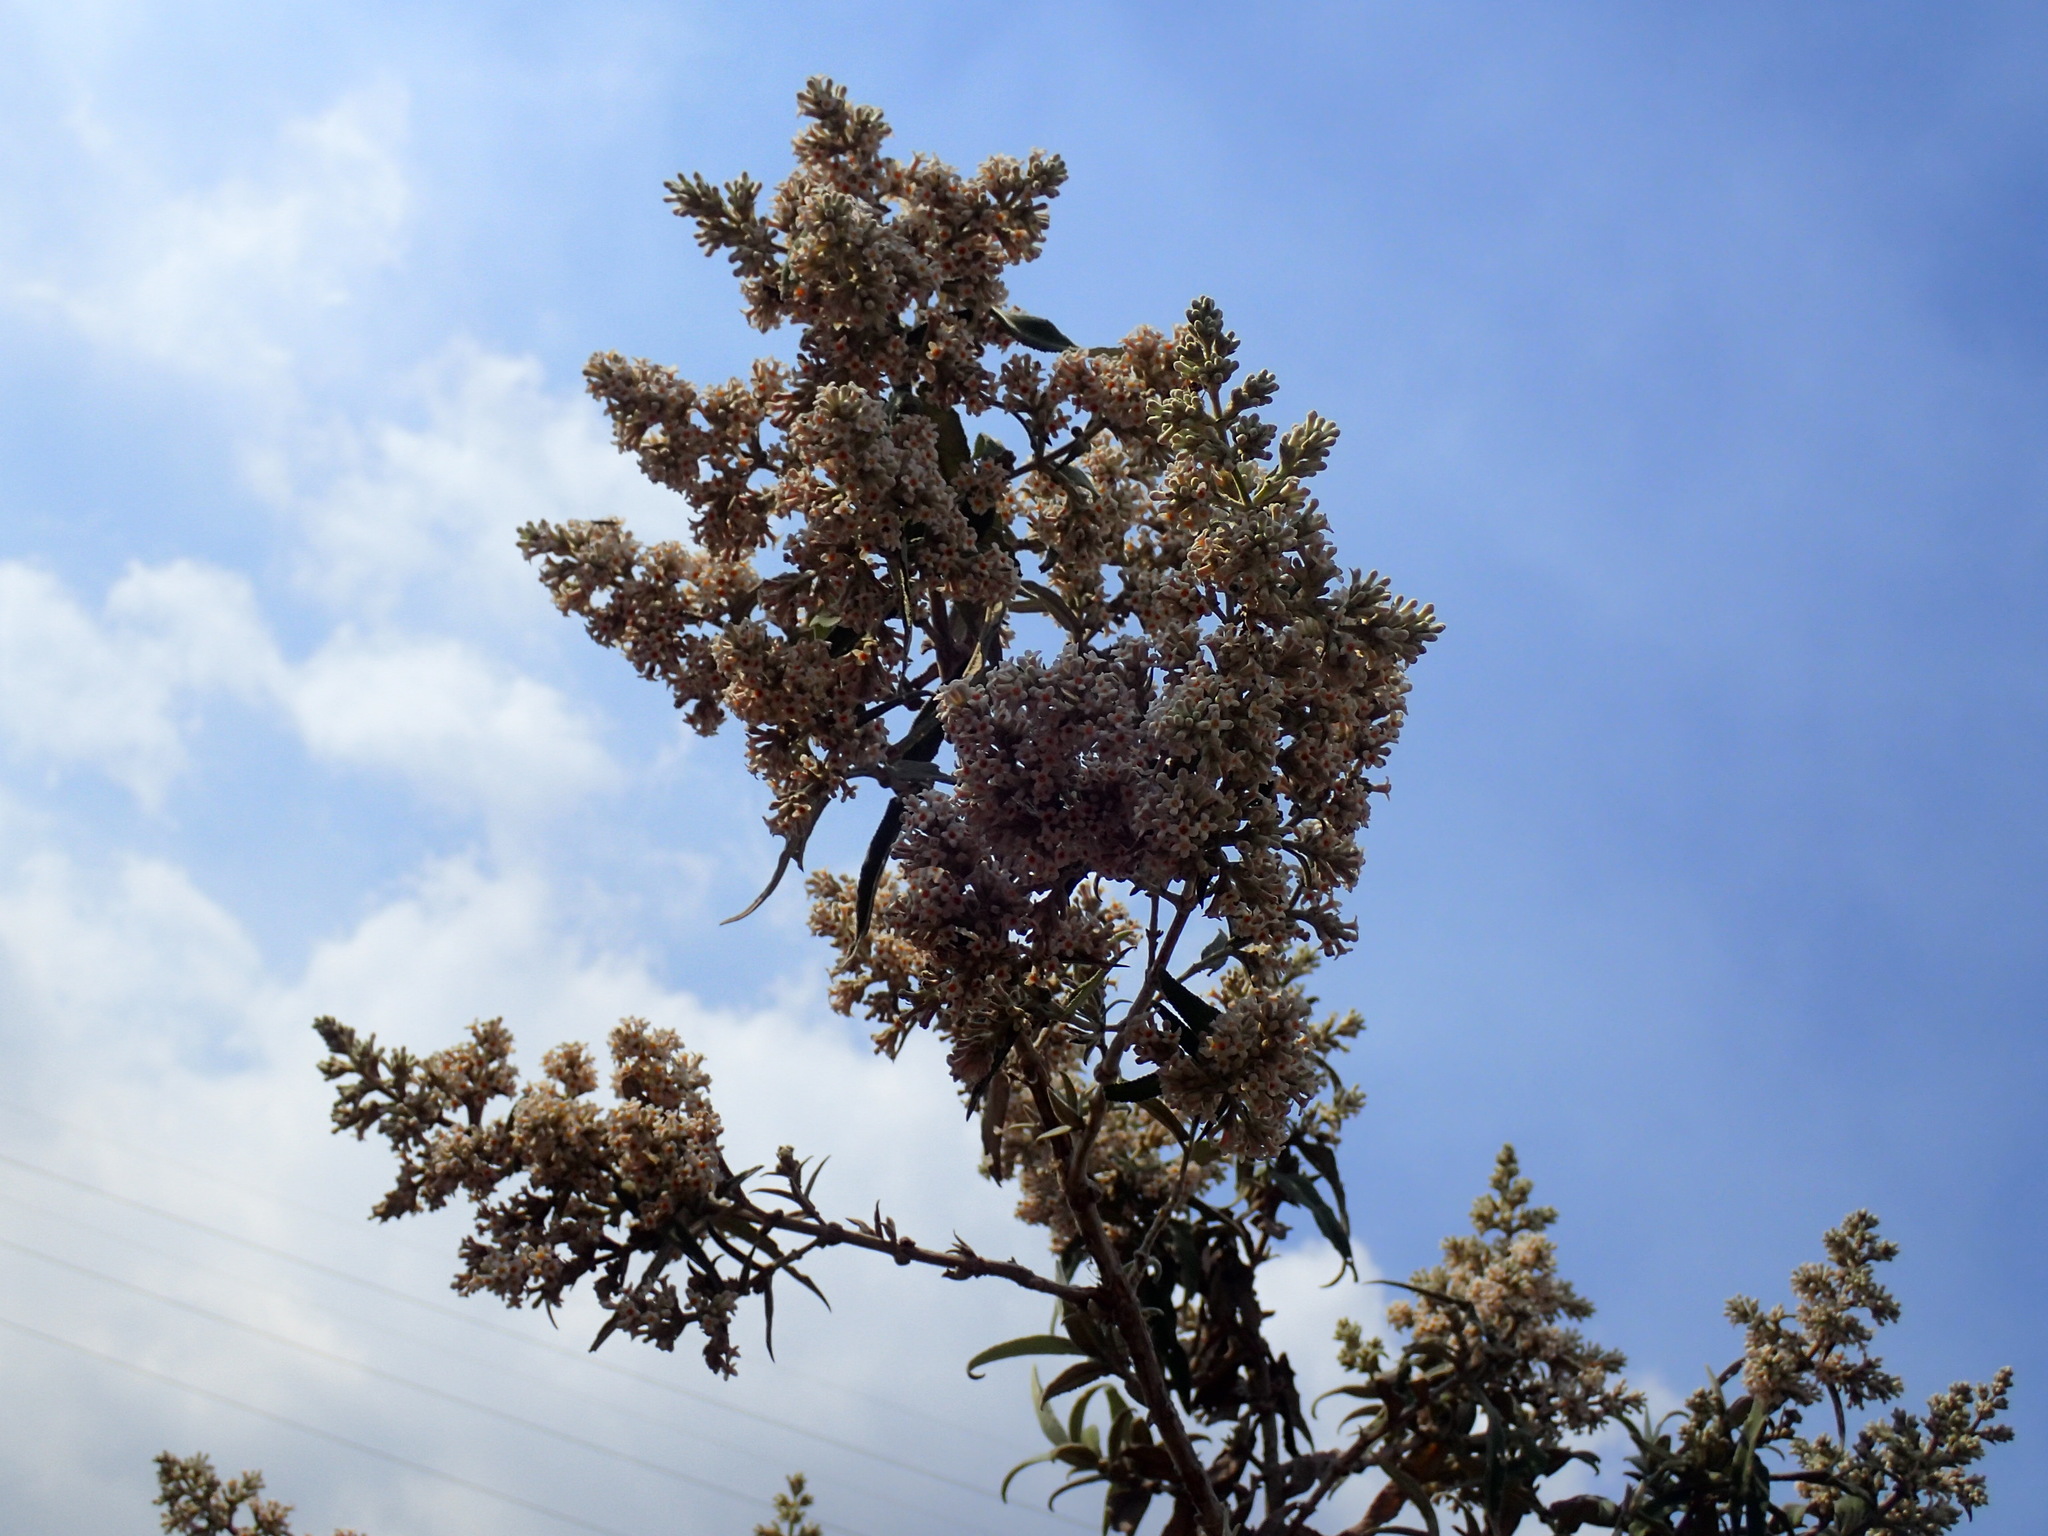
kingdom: Plantae
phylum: Tracheophyta
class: Magnoliopsida
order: Lamiales
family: Scrophulariaceae
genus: Buddleja
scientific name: Buddleja salviifolia
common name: Sagewood
